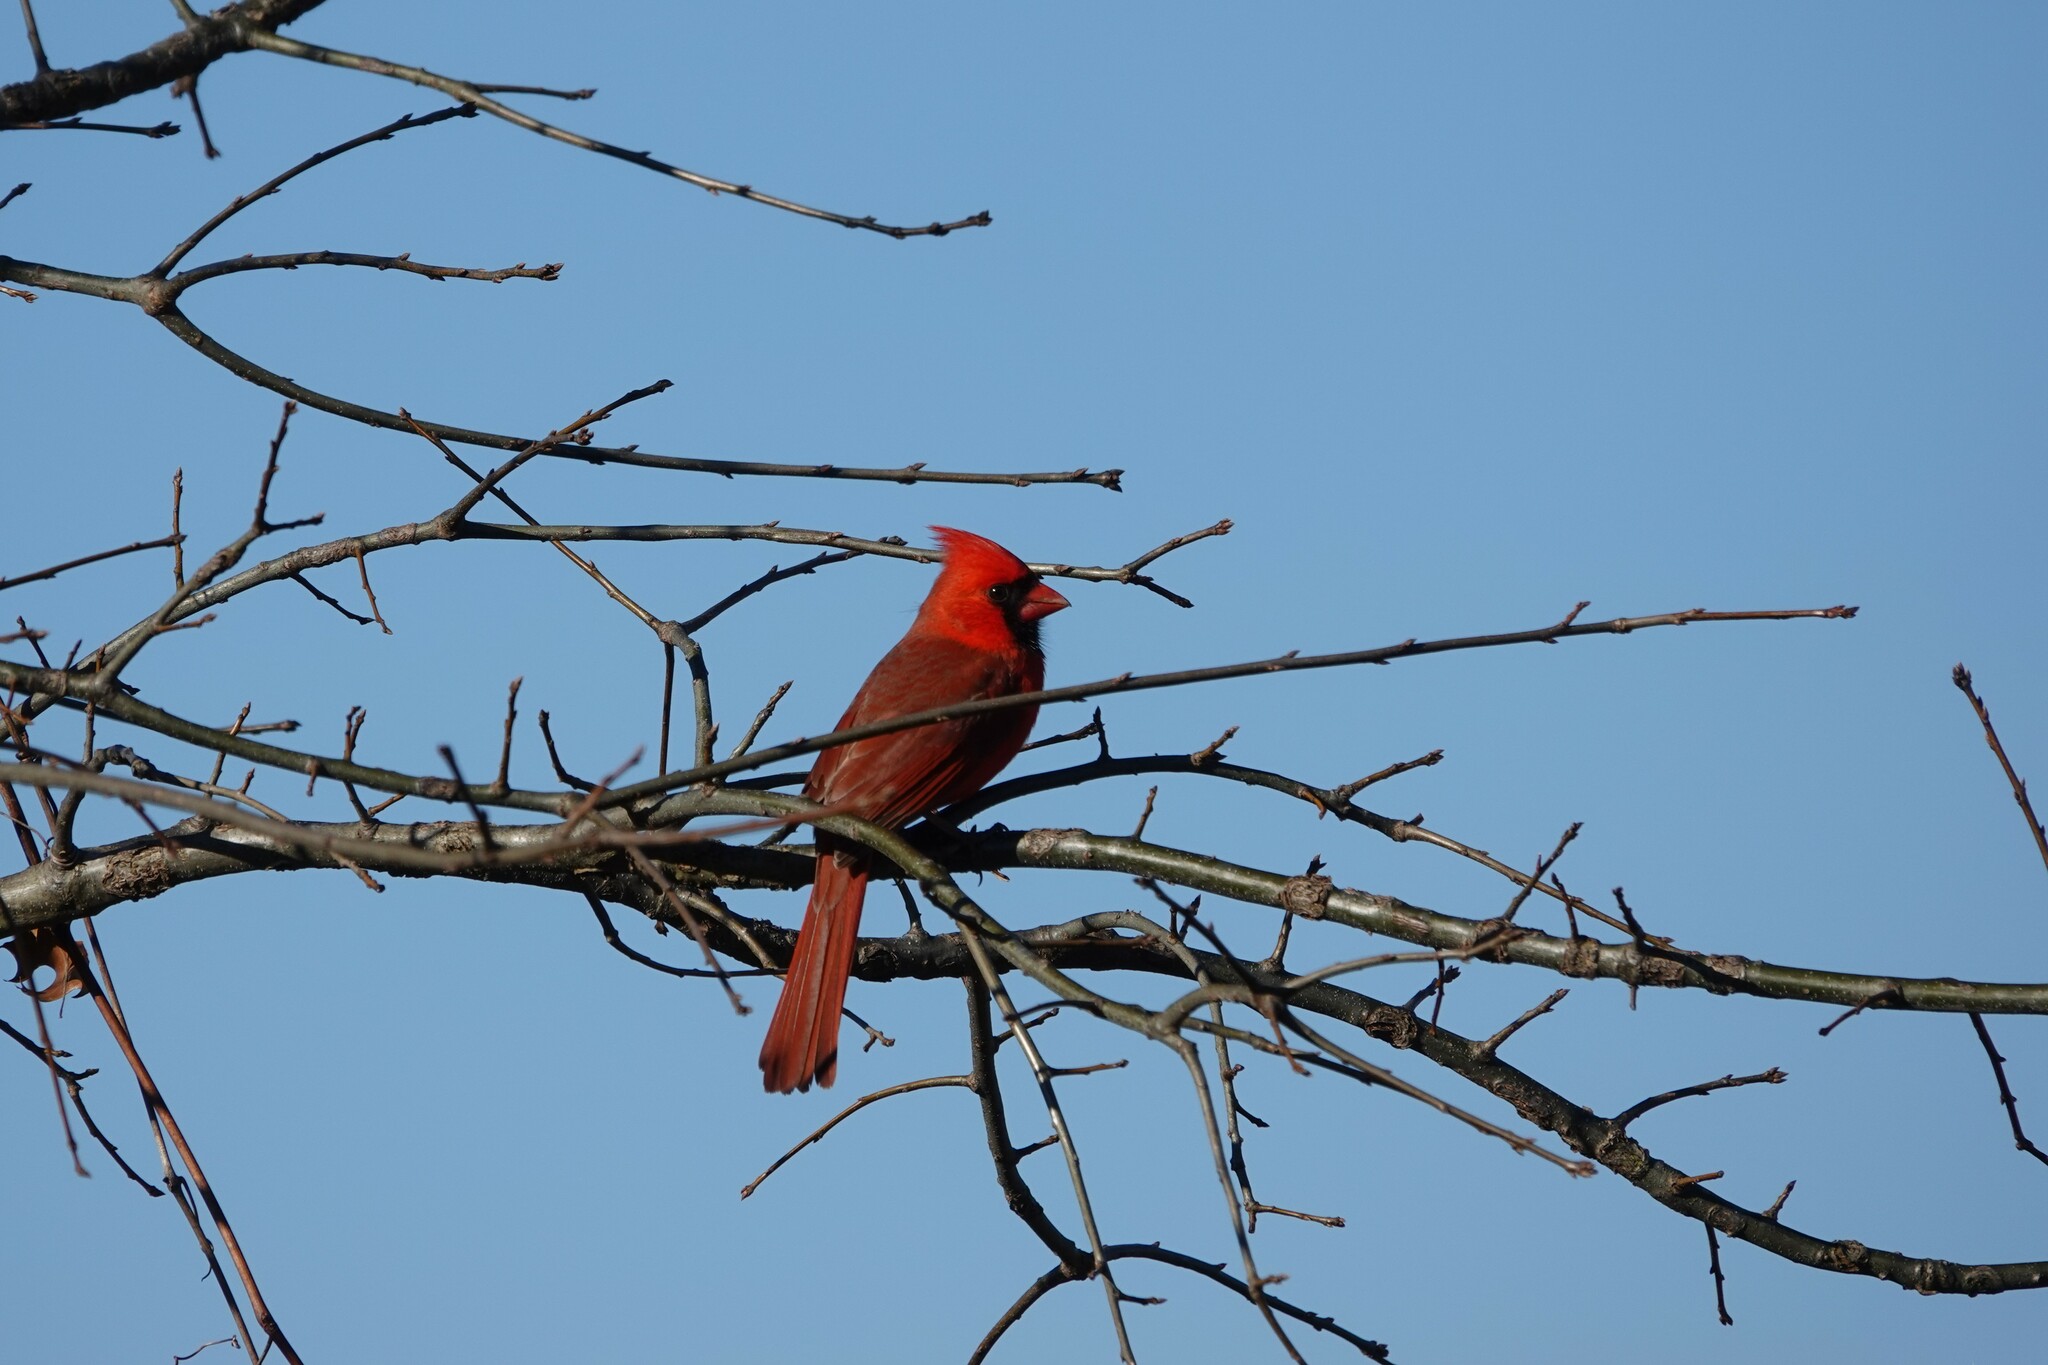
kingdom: Animalia
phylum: Chordata
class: Aves
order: Passeriformes
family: Cardinalidae
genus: Cardinalis
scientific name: Cardinalis cardinalis
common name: Northern cardinal
